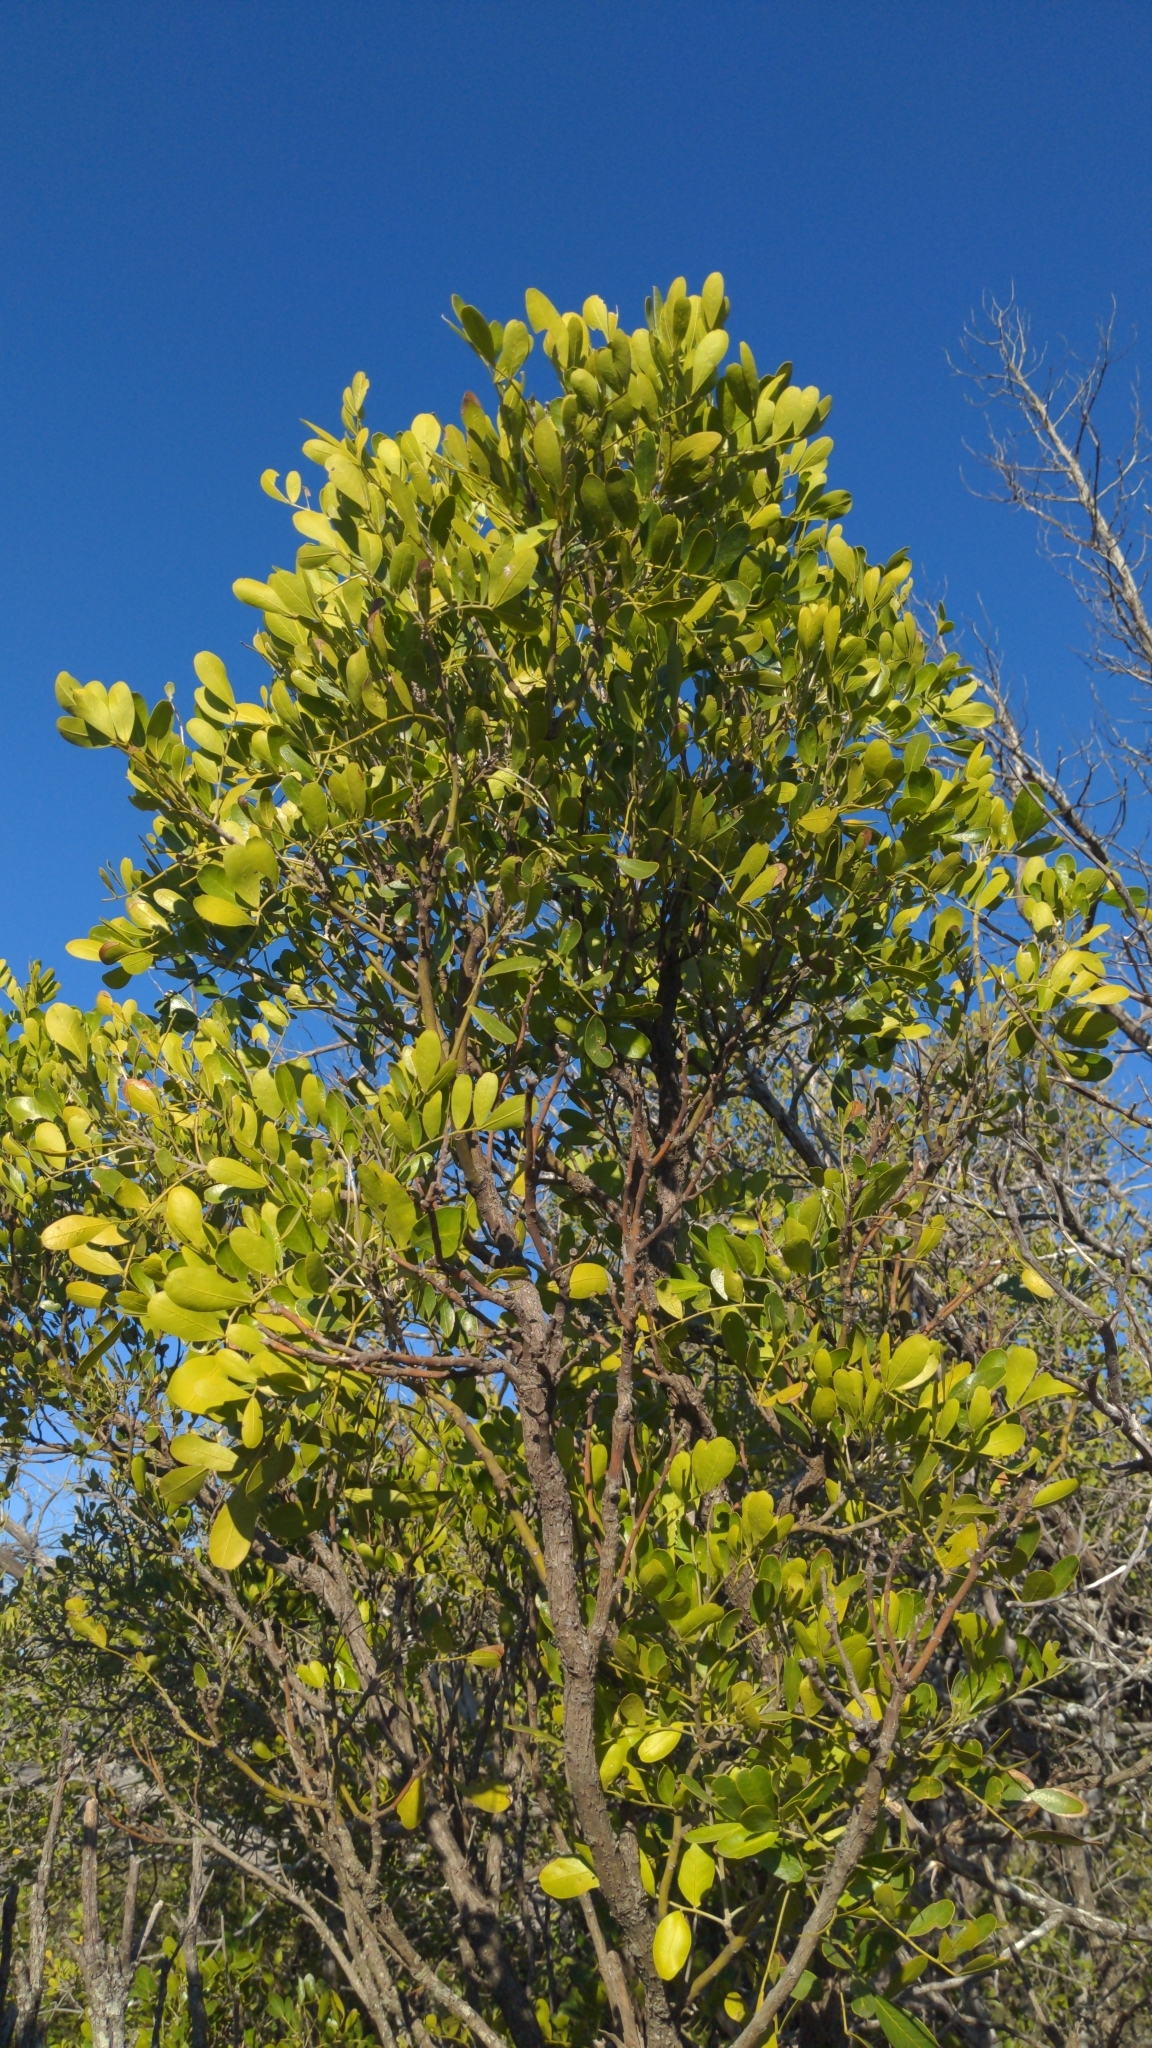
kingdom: Plantae
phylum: Tracheophyta
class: Magnoliopsida
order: Fabales
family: Fabaceae
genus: Dermatophyllum
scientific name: Dermatophyllum secundiflorum
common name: Texas-mountain-laurel
